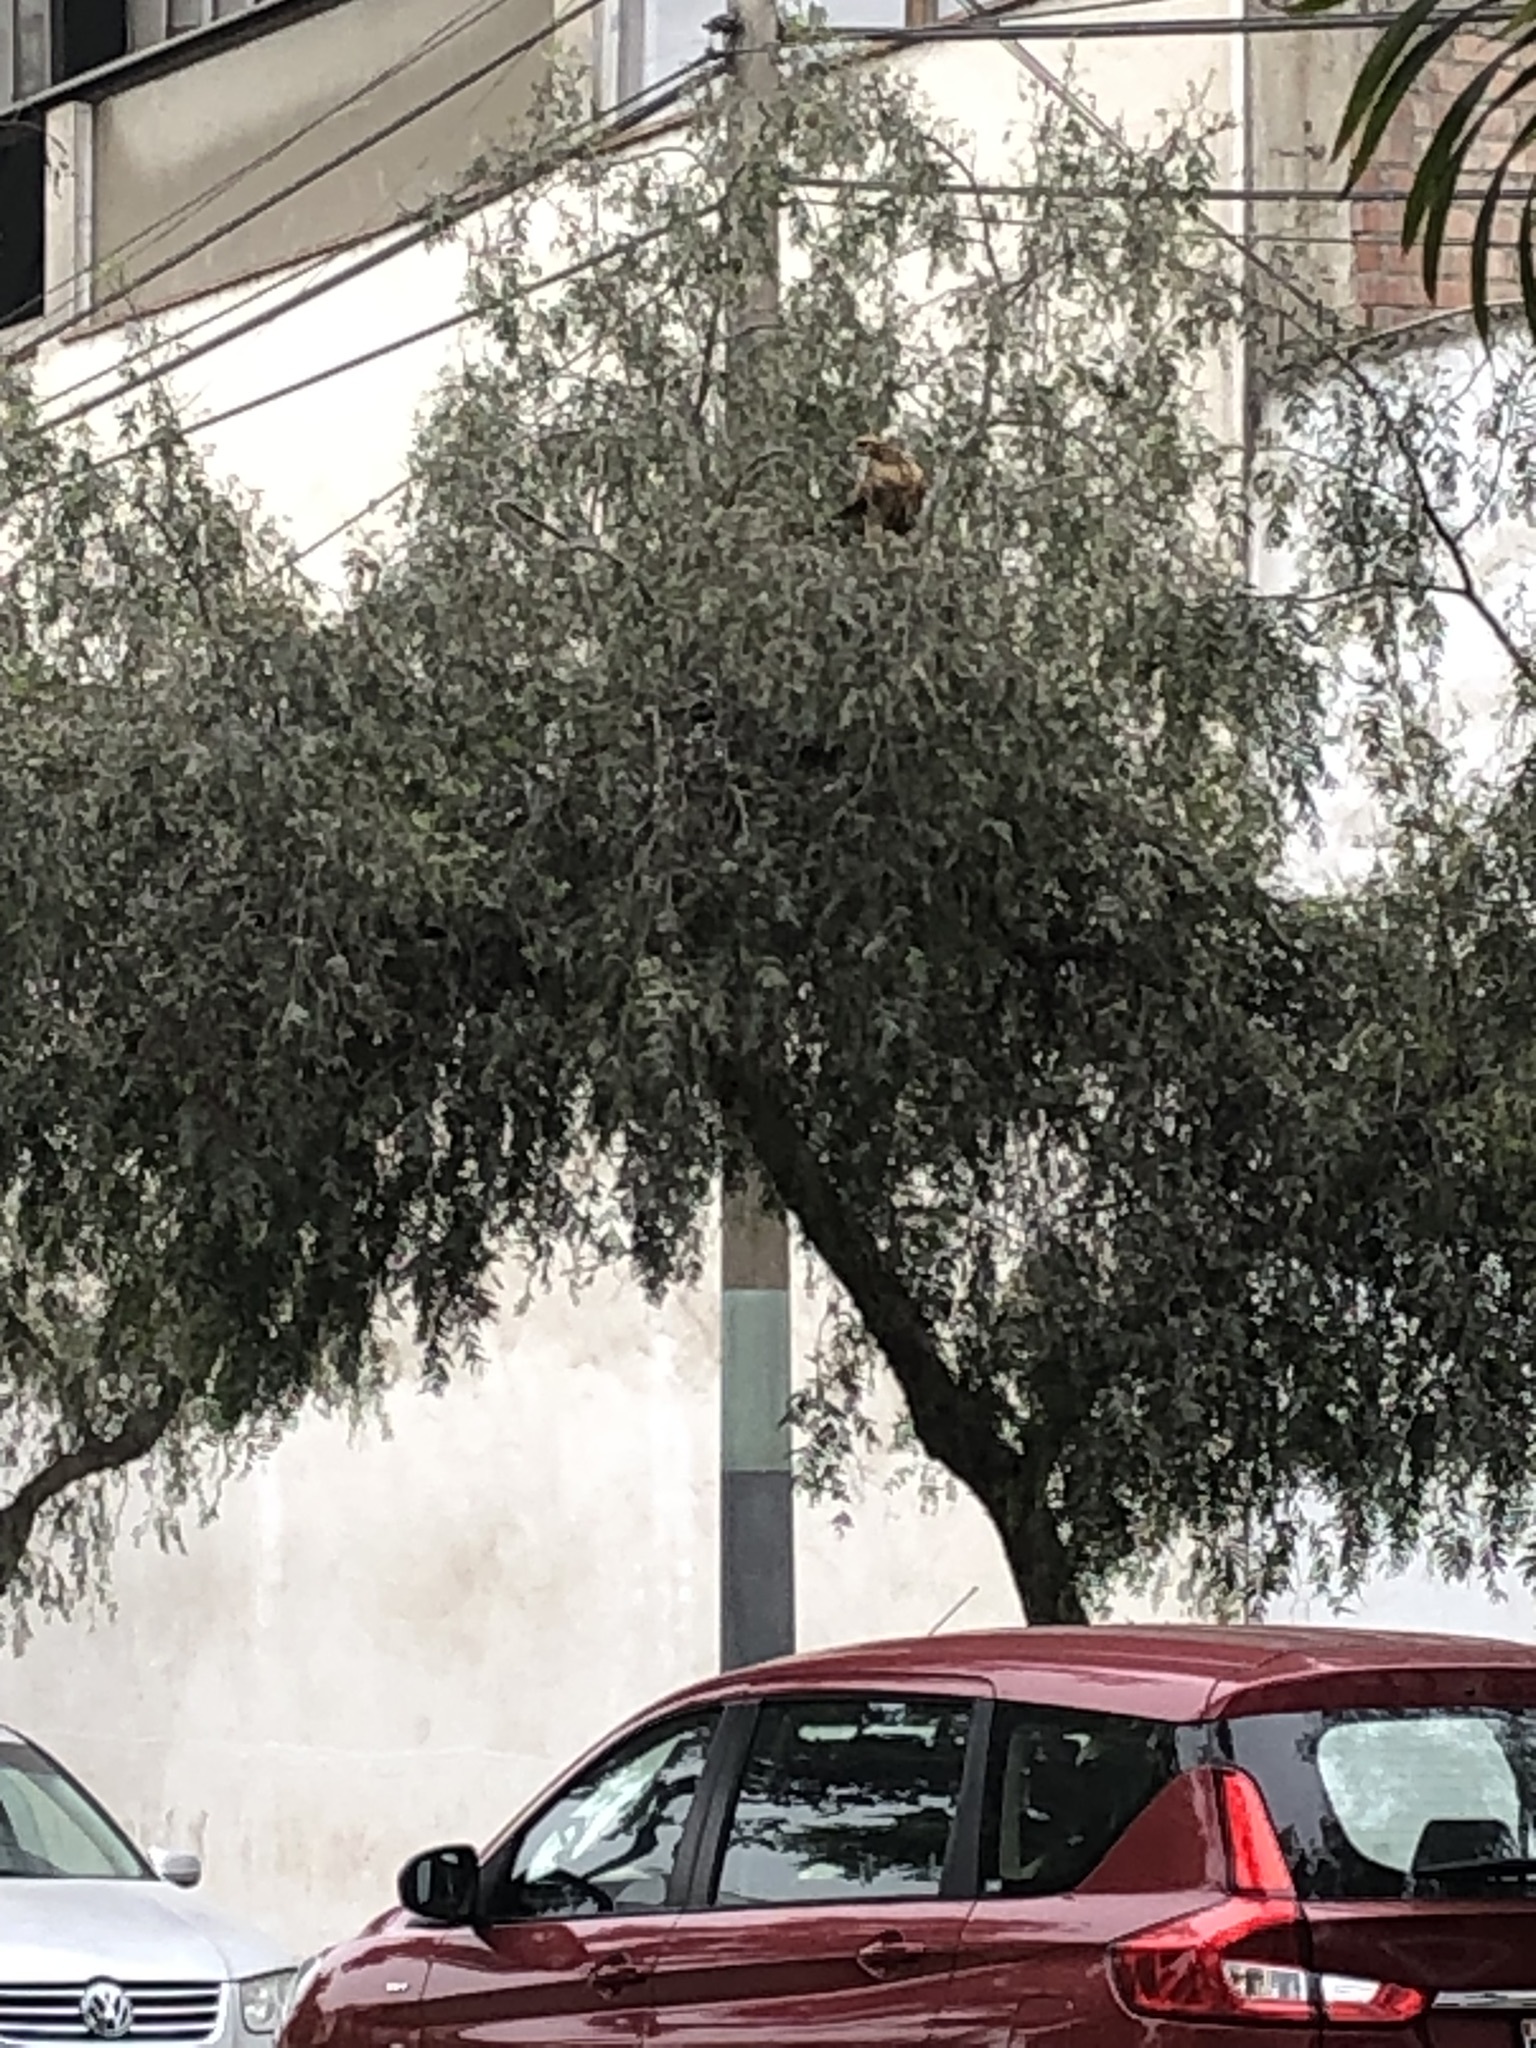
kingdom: Animalia
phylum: Chordata
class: Aves
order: Accipitriformes
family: Accipitridae
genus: Parabuteo
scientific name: Parabuteo unicinctus
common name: Harris's hawk
